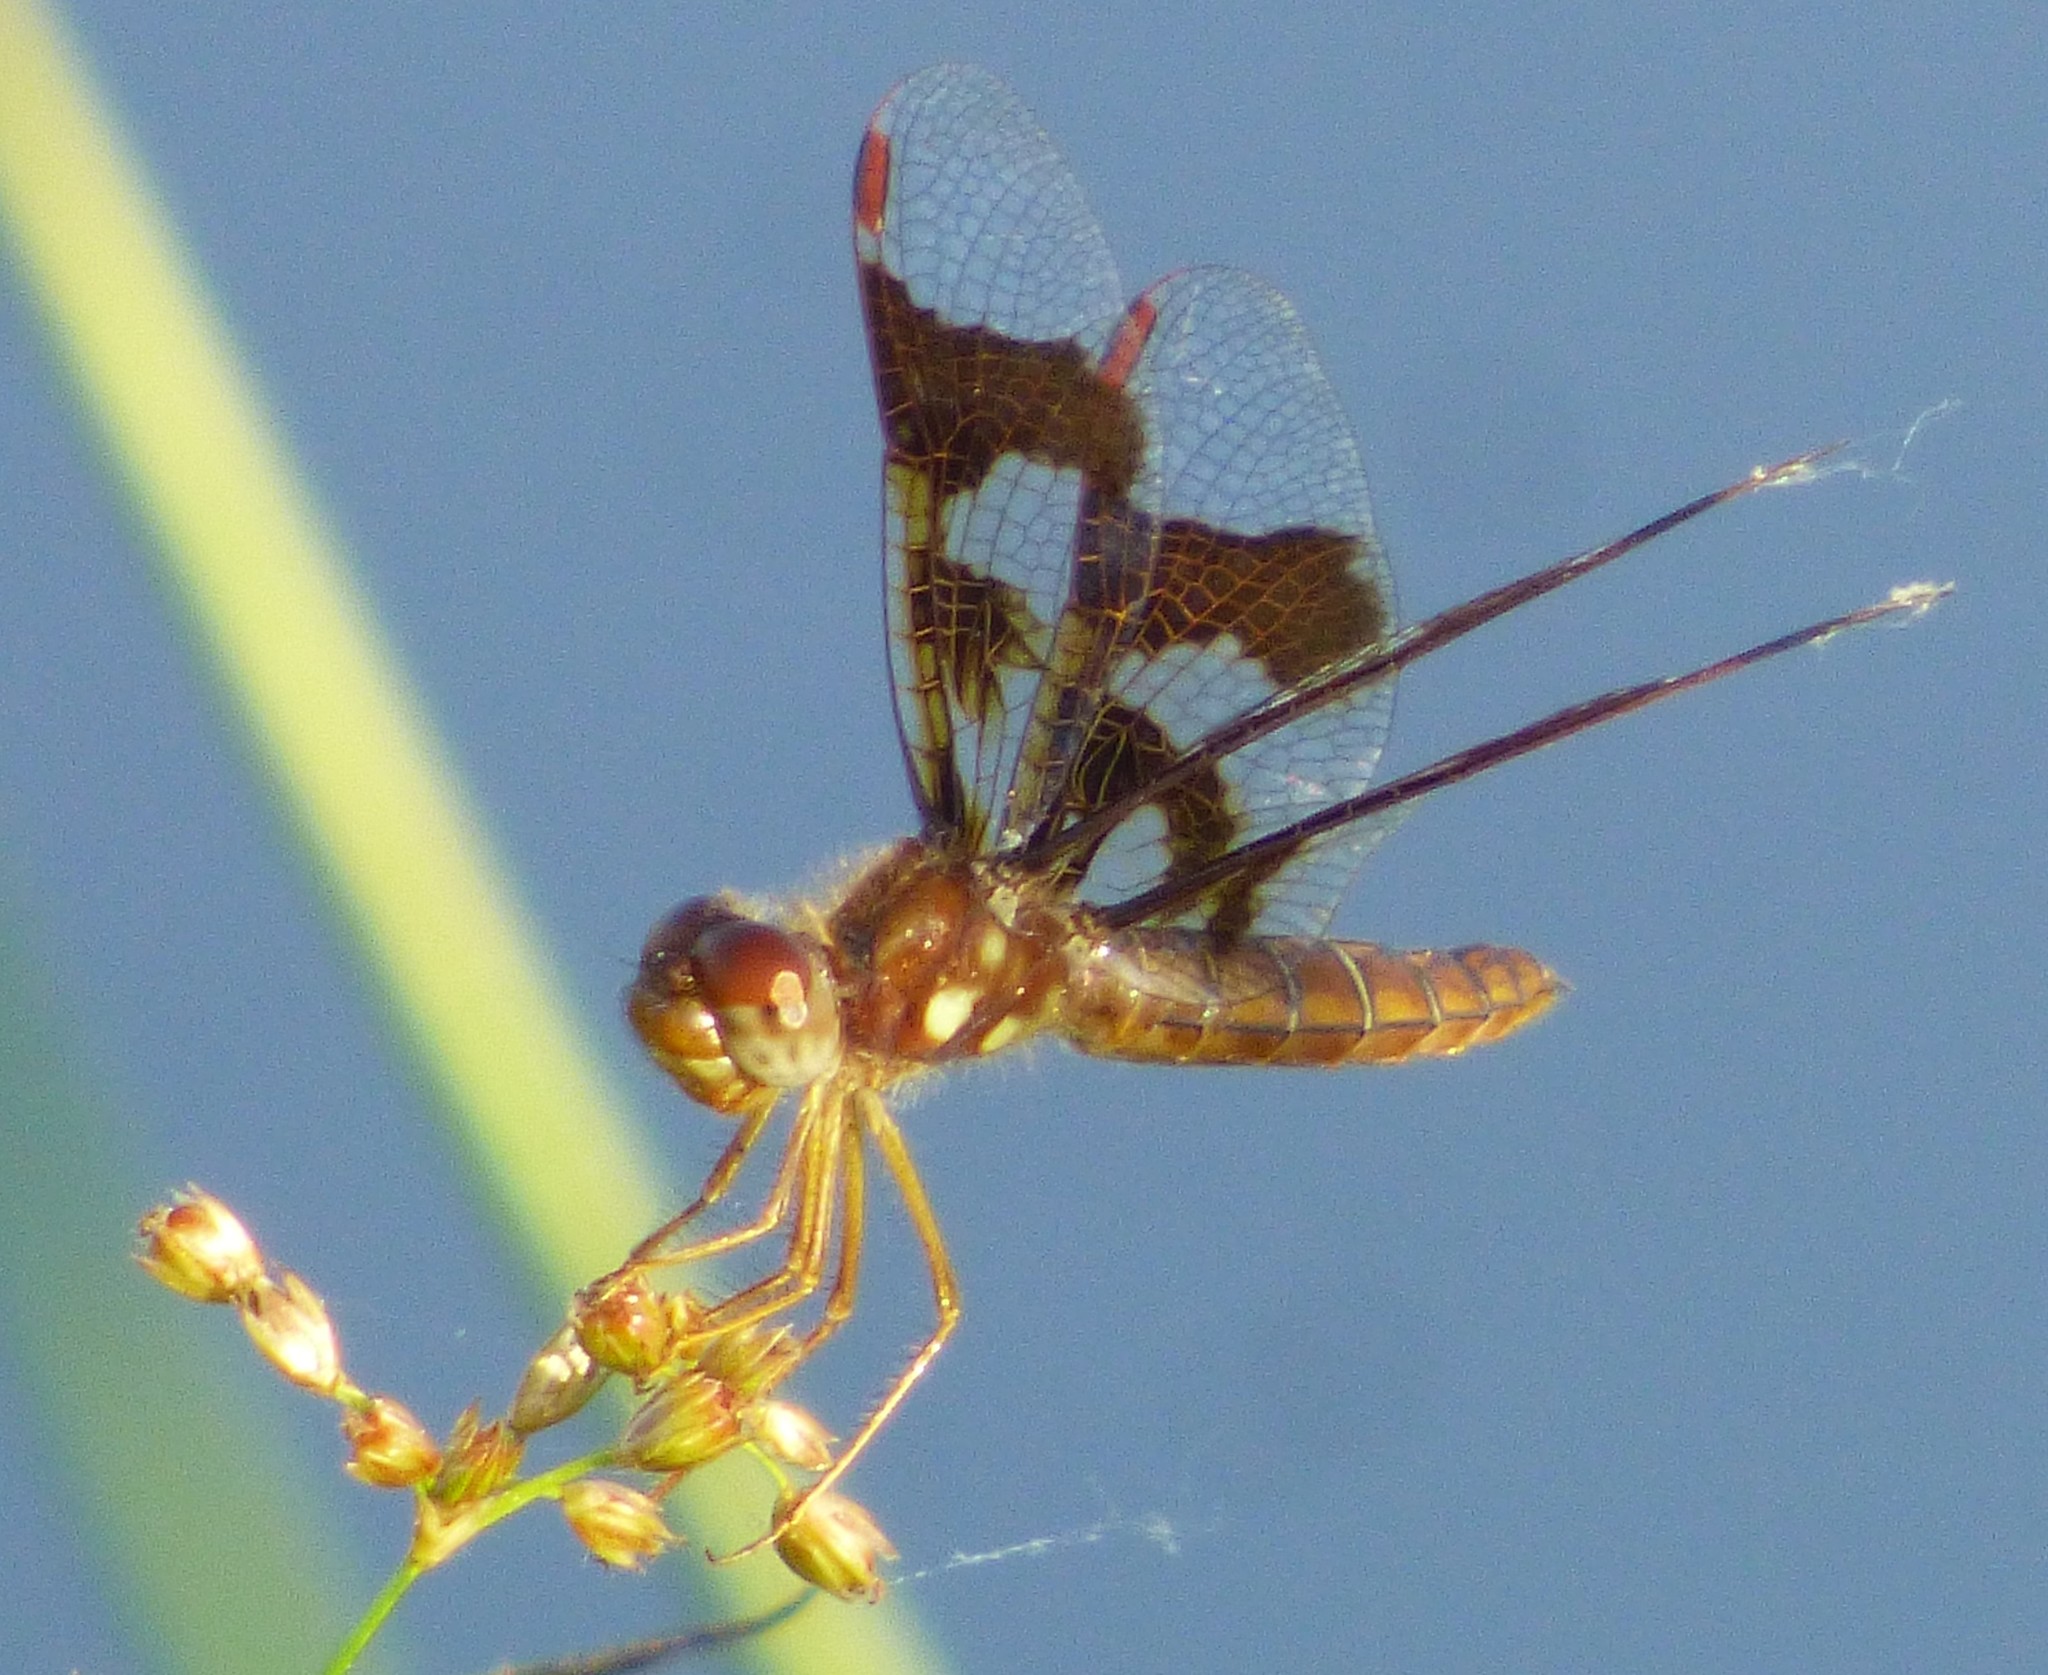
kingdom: Animalia
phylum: Arthropoda
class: Insecta
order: Odonata
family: Libellulidae
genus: Perithemis
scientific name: Perithemis tenera
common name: Eastern amberwing
